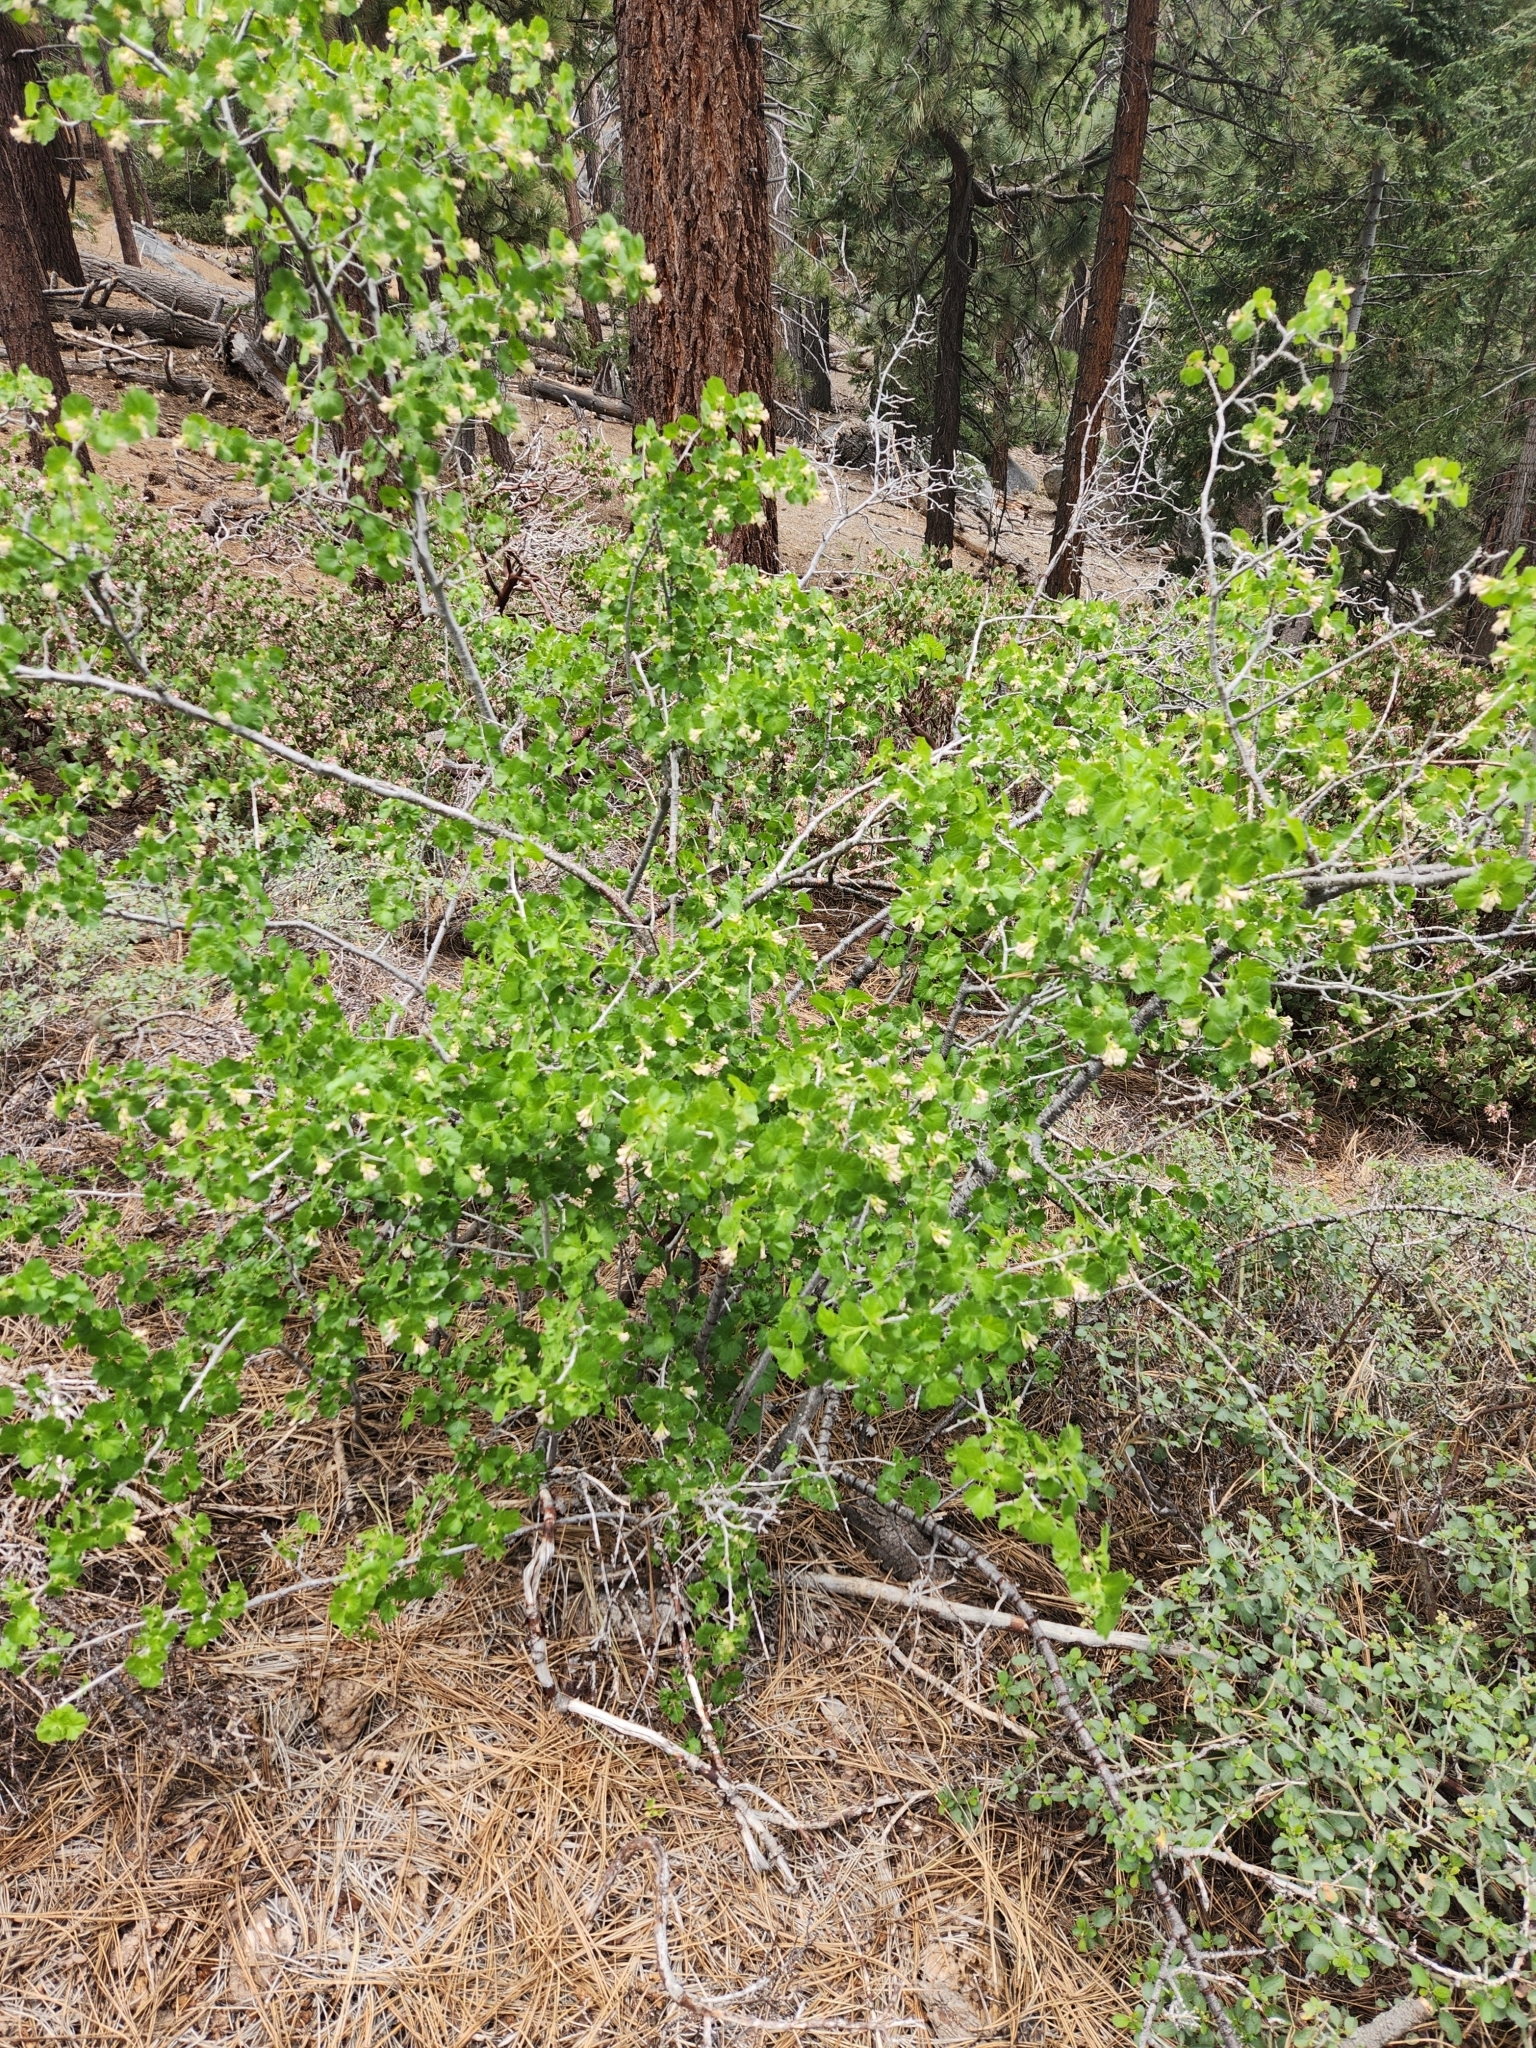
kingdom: Plantae
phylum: Tracheophyta
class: Magnoliopsida
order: Saxifragales
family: Grossulariaceae
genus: Ribes
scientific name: Ribes cereum
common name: Wax currant
